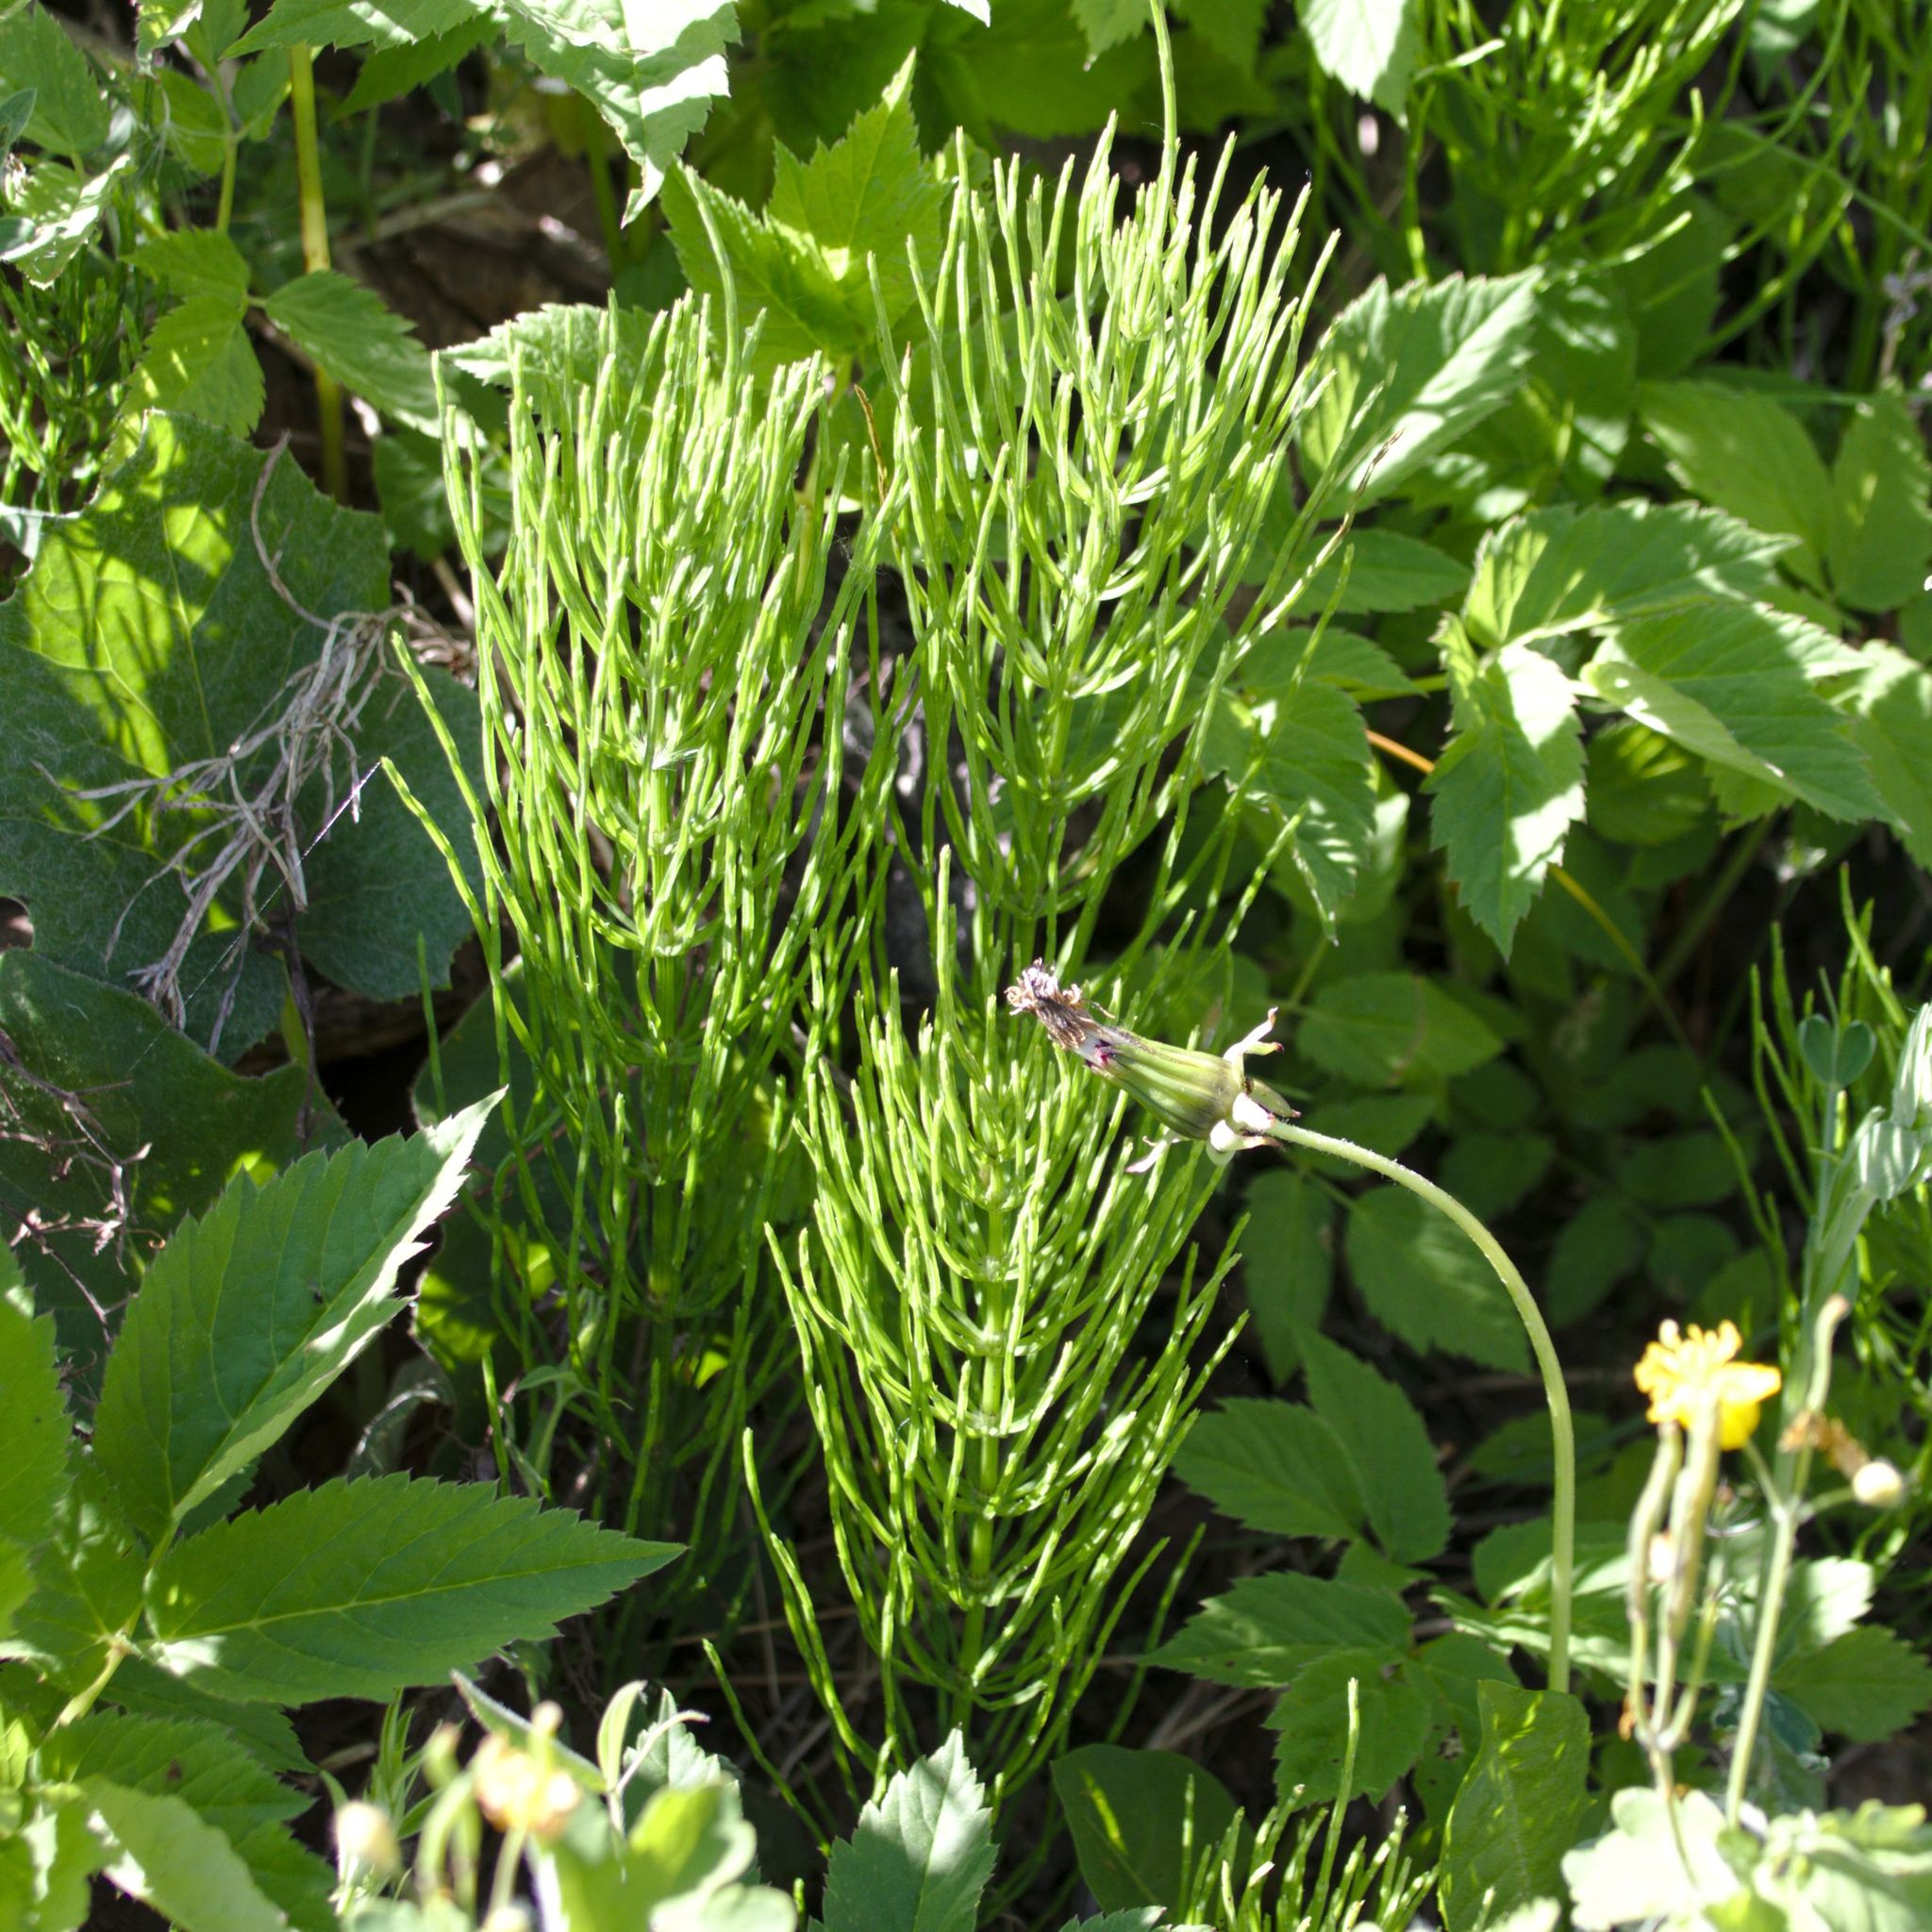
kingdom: Plantae
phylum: Tracheophyta
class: Polypodiopsida
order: Equisetales
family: Equisetaceae
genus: Equisetum
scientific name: Equisetum arvense
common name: Field horsetail
